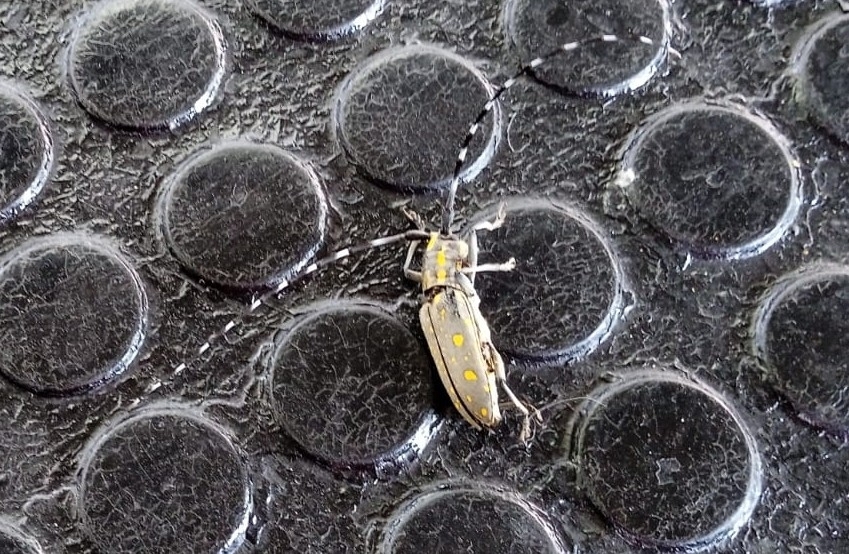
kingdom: Animalia
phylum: Arthropoda
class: Insecta
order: Coleoptera
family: Cerambycidae
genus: Psacothea
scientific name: Psacothea hilaris
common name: Yellow-spotted longicorn beetle
